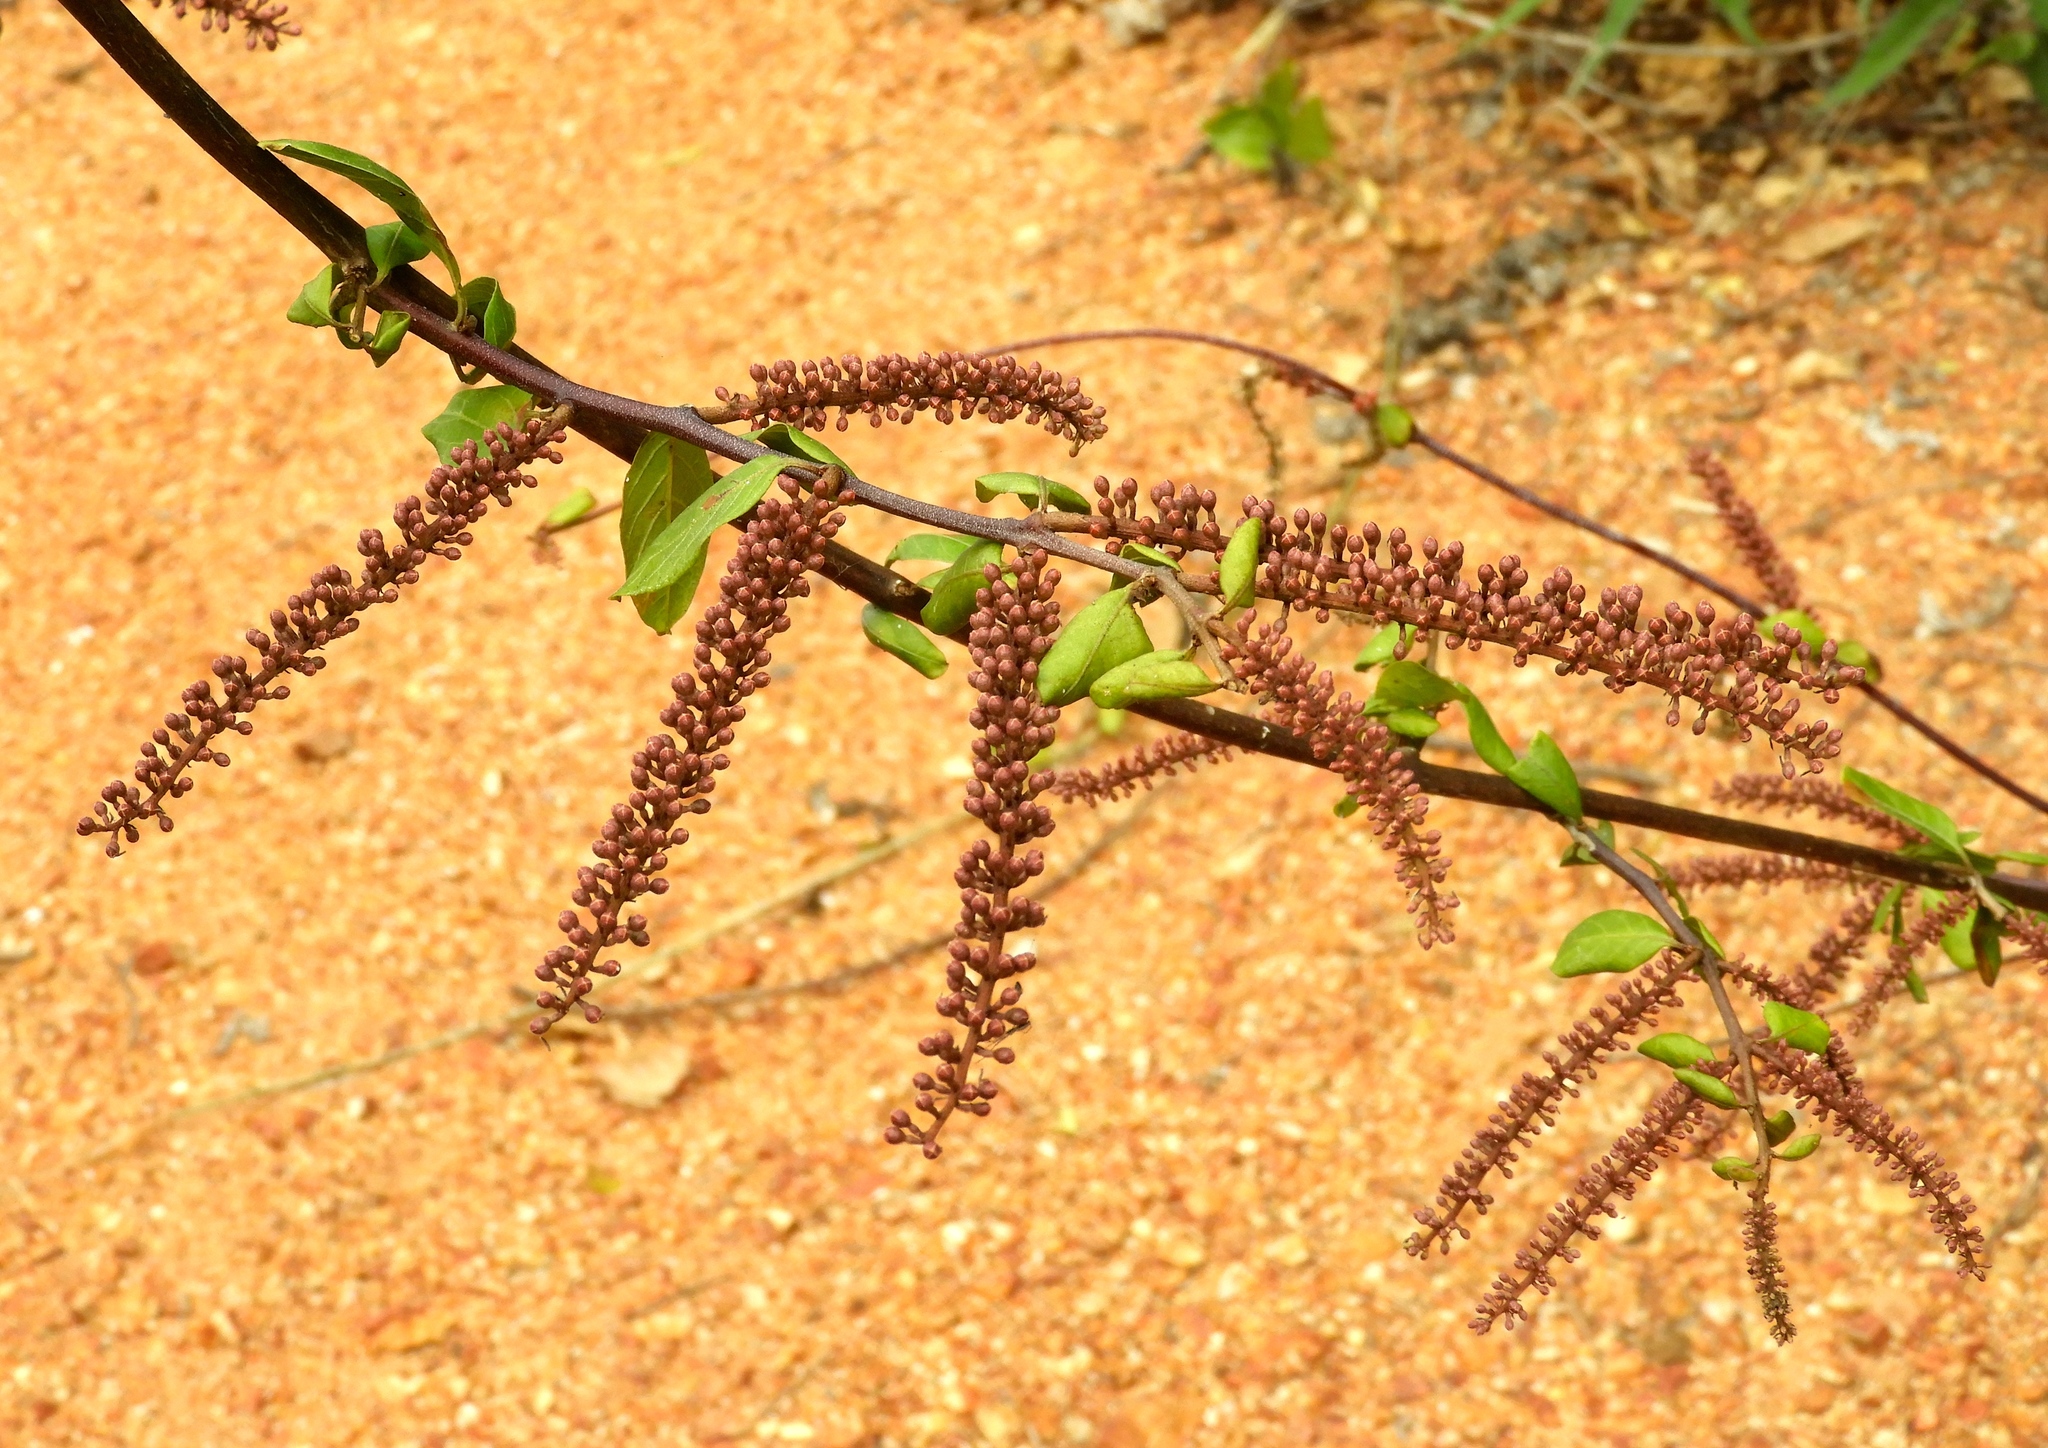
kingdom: Plantae
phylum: Tracheophyta
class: Magnoliopsida
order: Myrtales
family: Combretaceae
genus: Combretum
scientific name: Combretum farinosum
